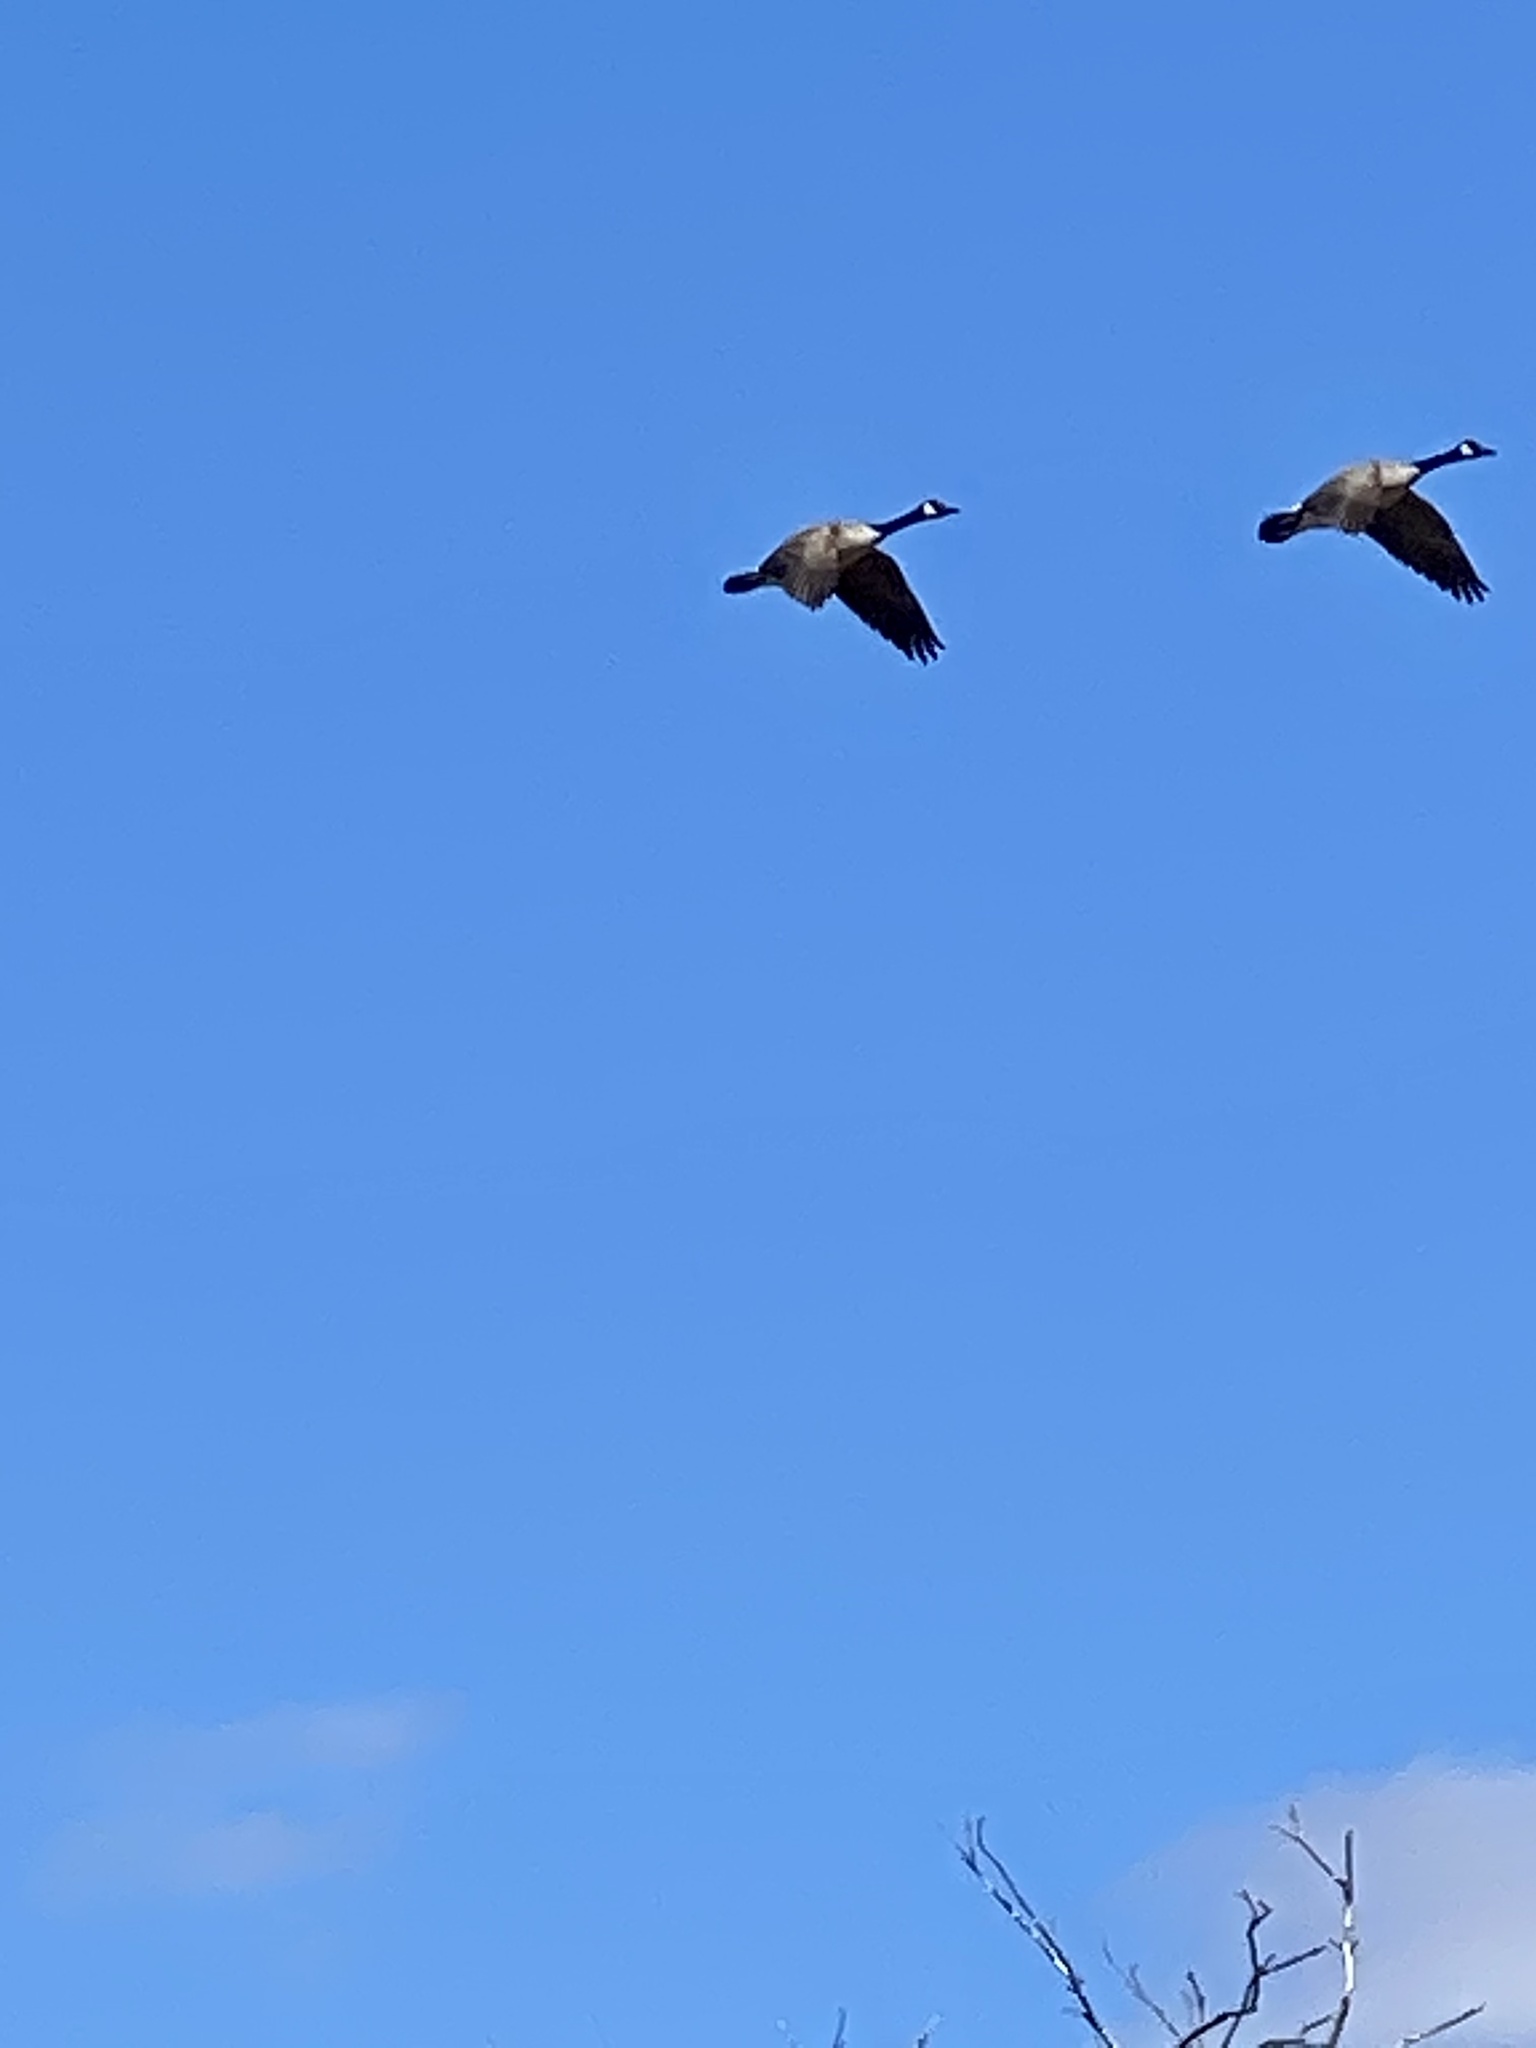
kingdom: Animalia
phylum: Chordata
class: Aves
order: Anseriformes
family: Anatidae
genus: Branta
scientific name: Branta canadensis
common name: Canada goose
